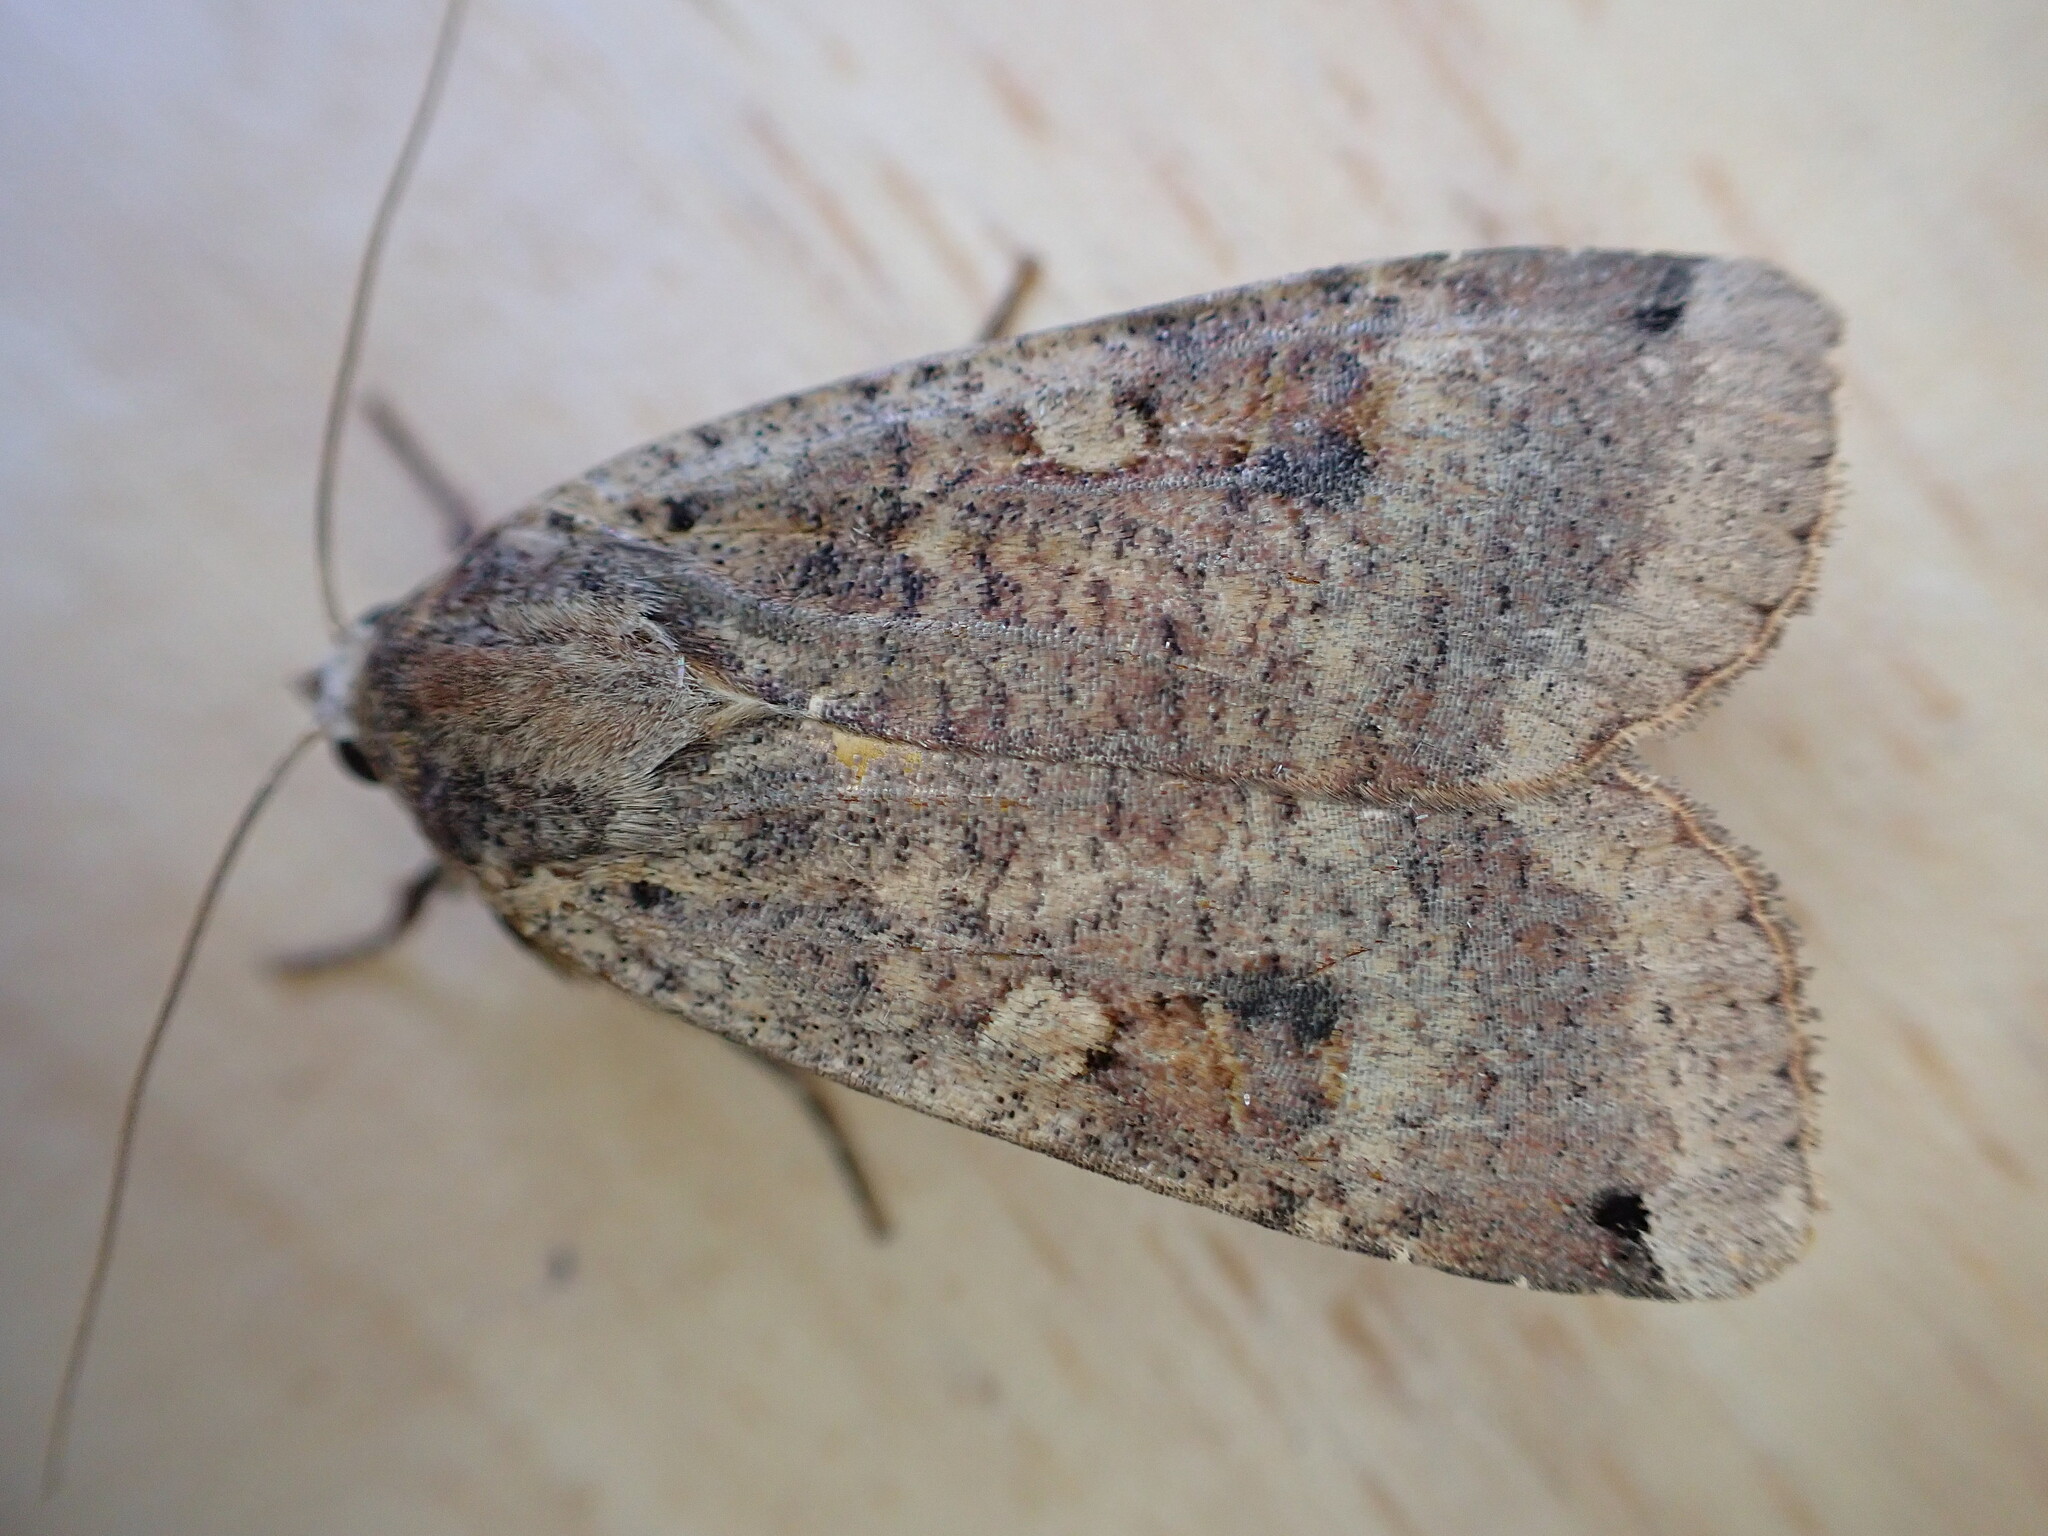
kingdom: Animalia
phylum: Arthropoda
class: Insecta
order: Lepidoptera
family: Noctuidae
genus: Noctua
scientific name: Noctua pronuba
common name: Large yellow underwing
